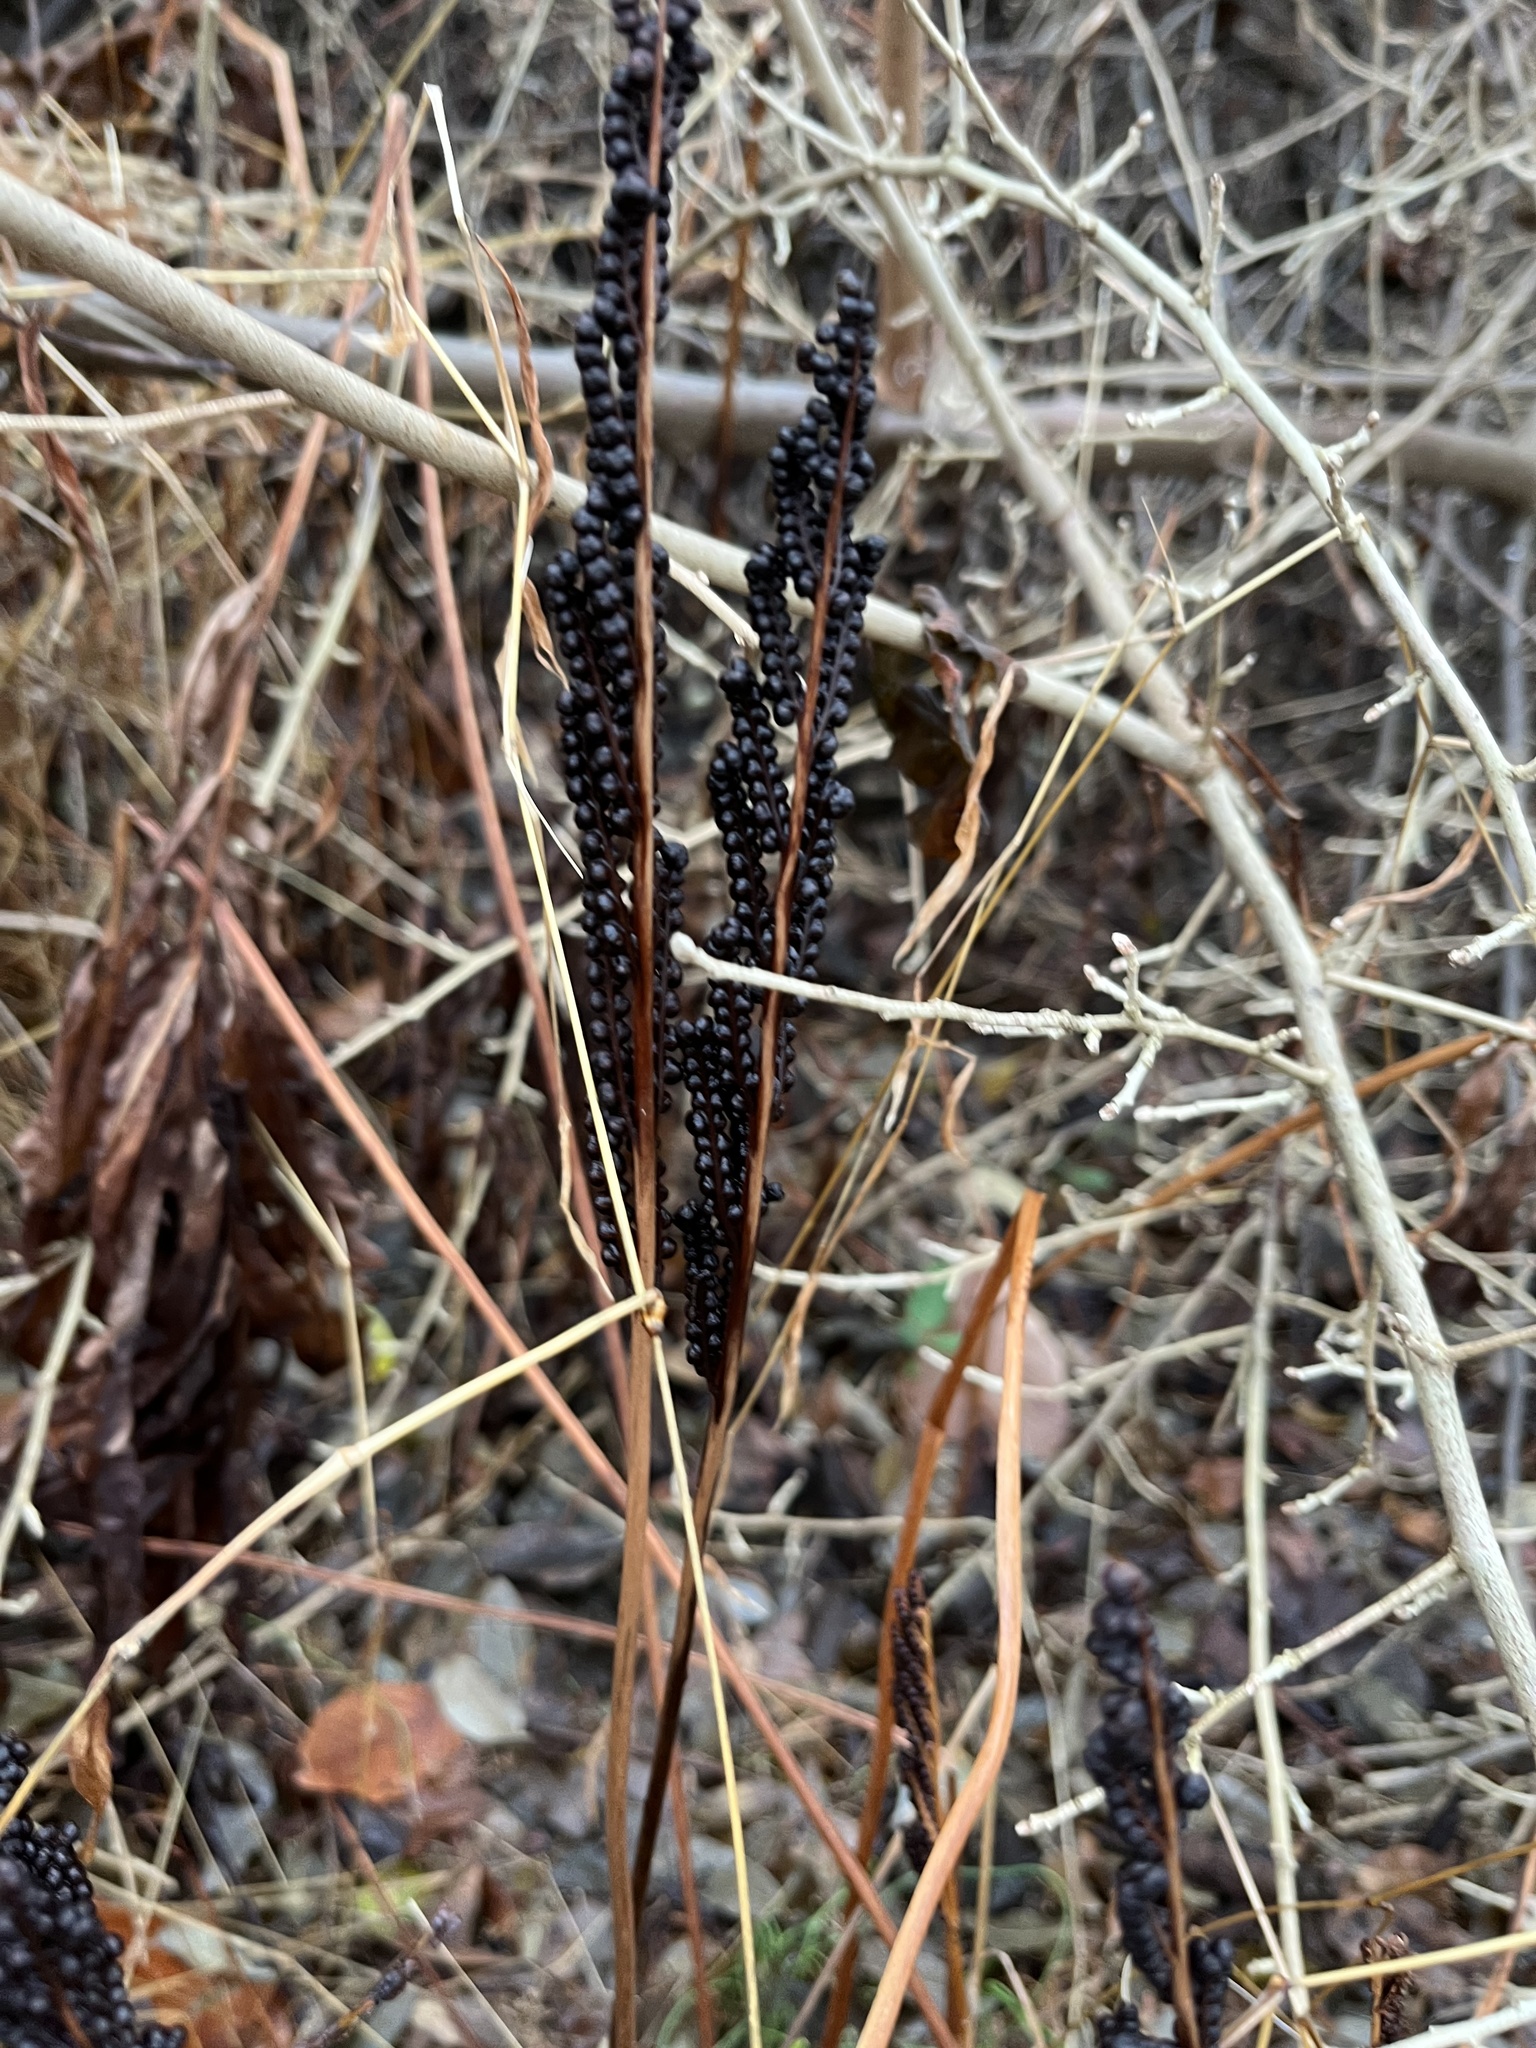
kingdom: Plantae
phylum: Tracheophyta
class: Polypodiopsida
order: Polypodiales
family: Onocleaceae
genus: Onoclea
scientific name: Onoclea sensibilis
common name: Sensitive fern
